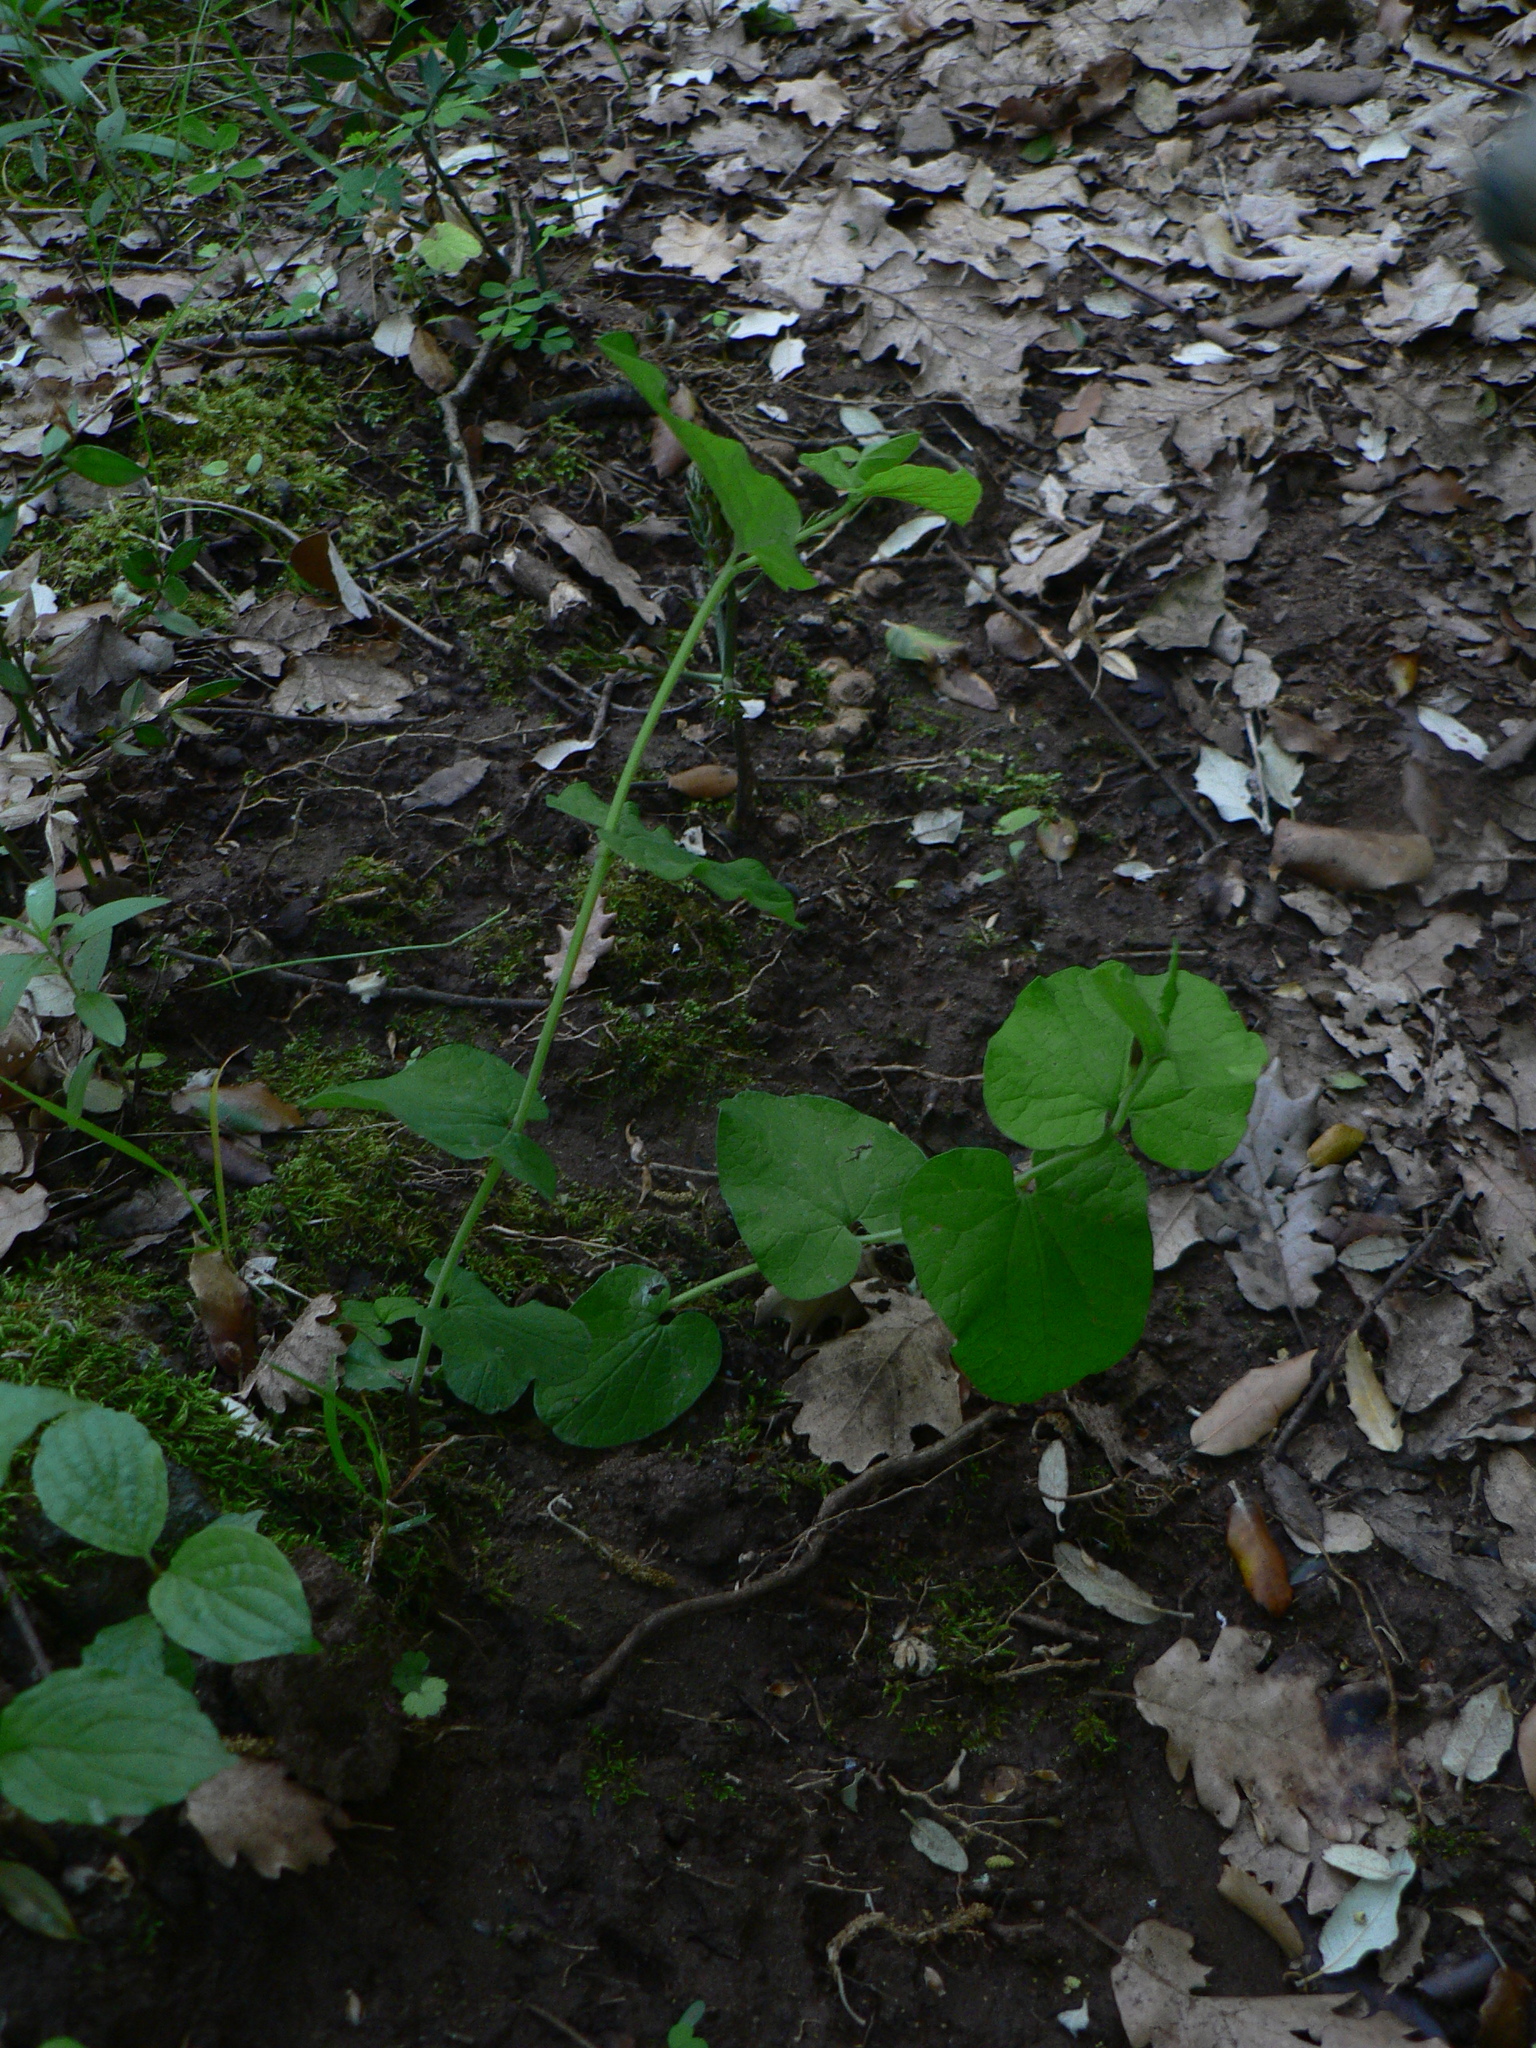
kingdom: Plantae
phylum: Tracheophyta
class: Magnoliopsida
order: Piperales
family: Aristolochiaceae
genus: Aristolochia
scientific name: Aristolochia rotunda
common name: Smearwort
